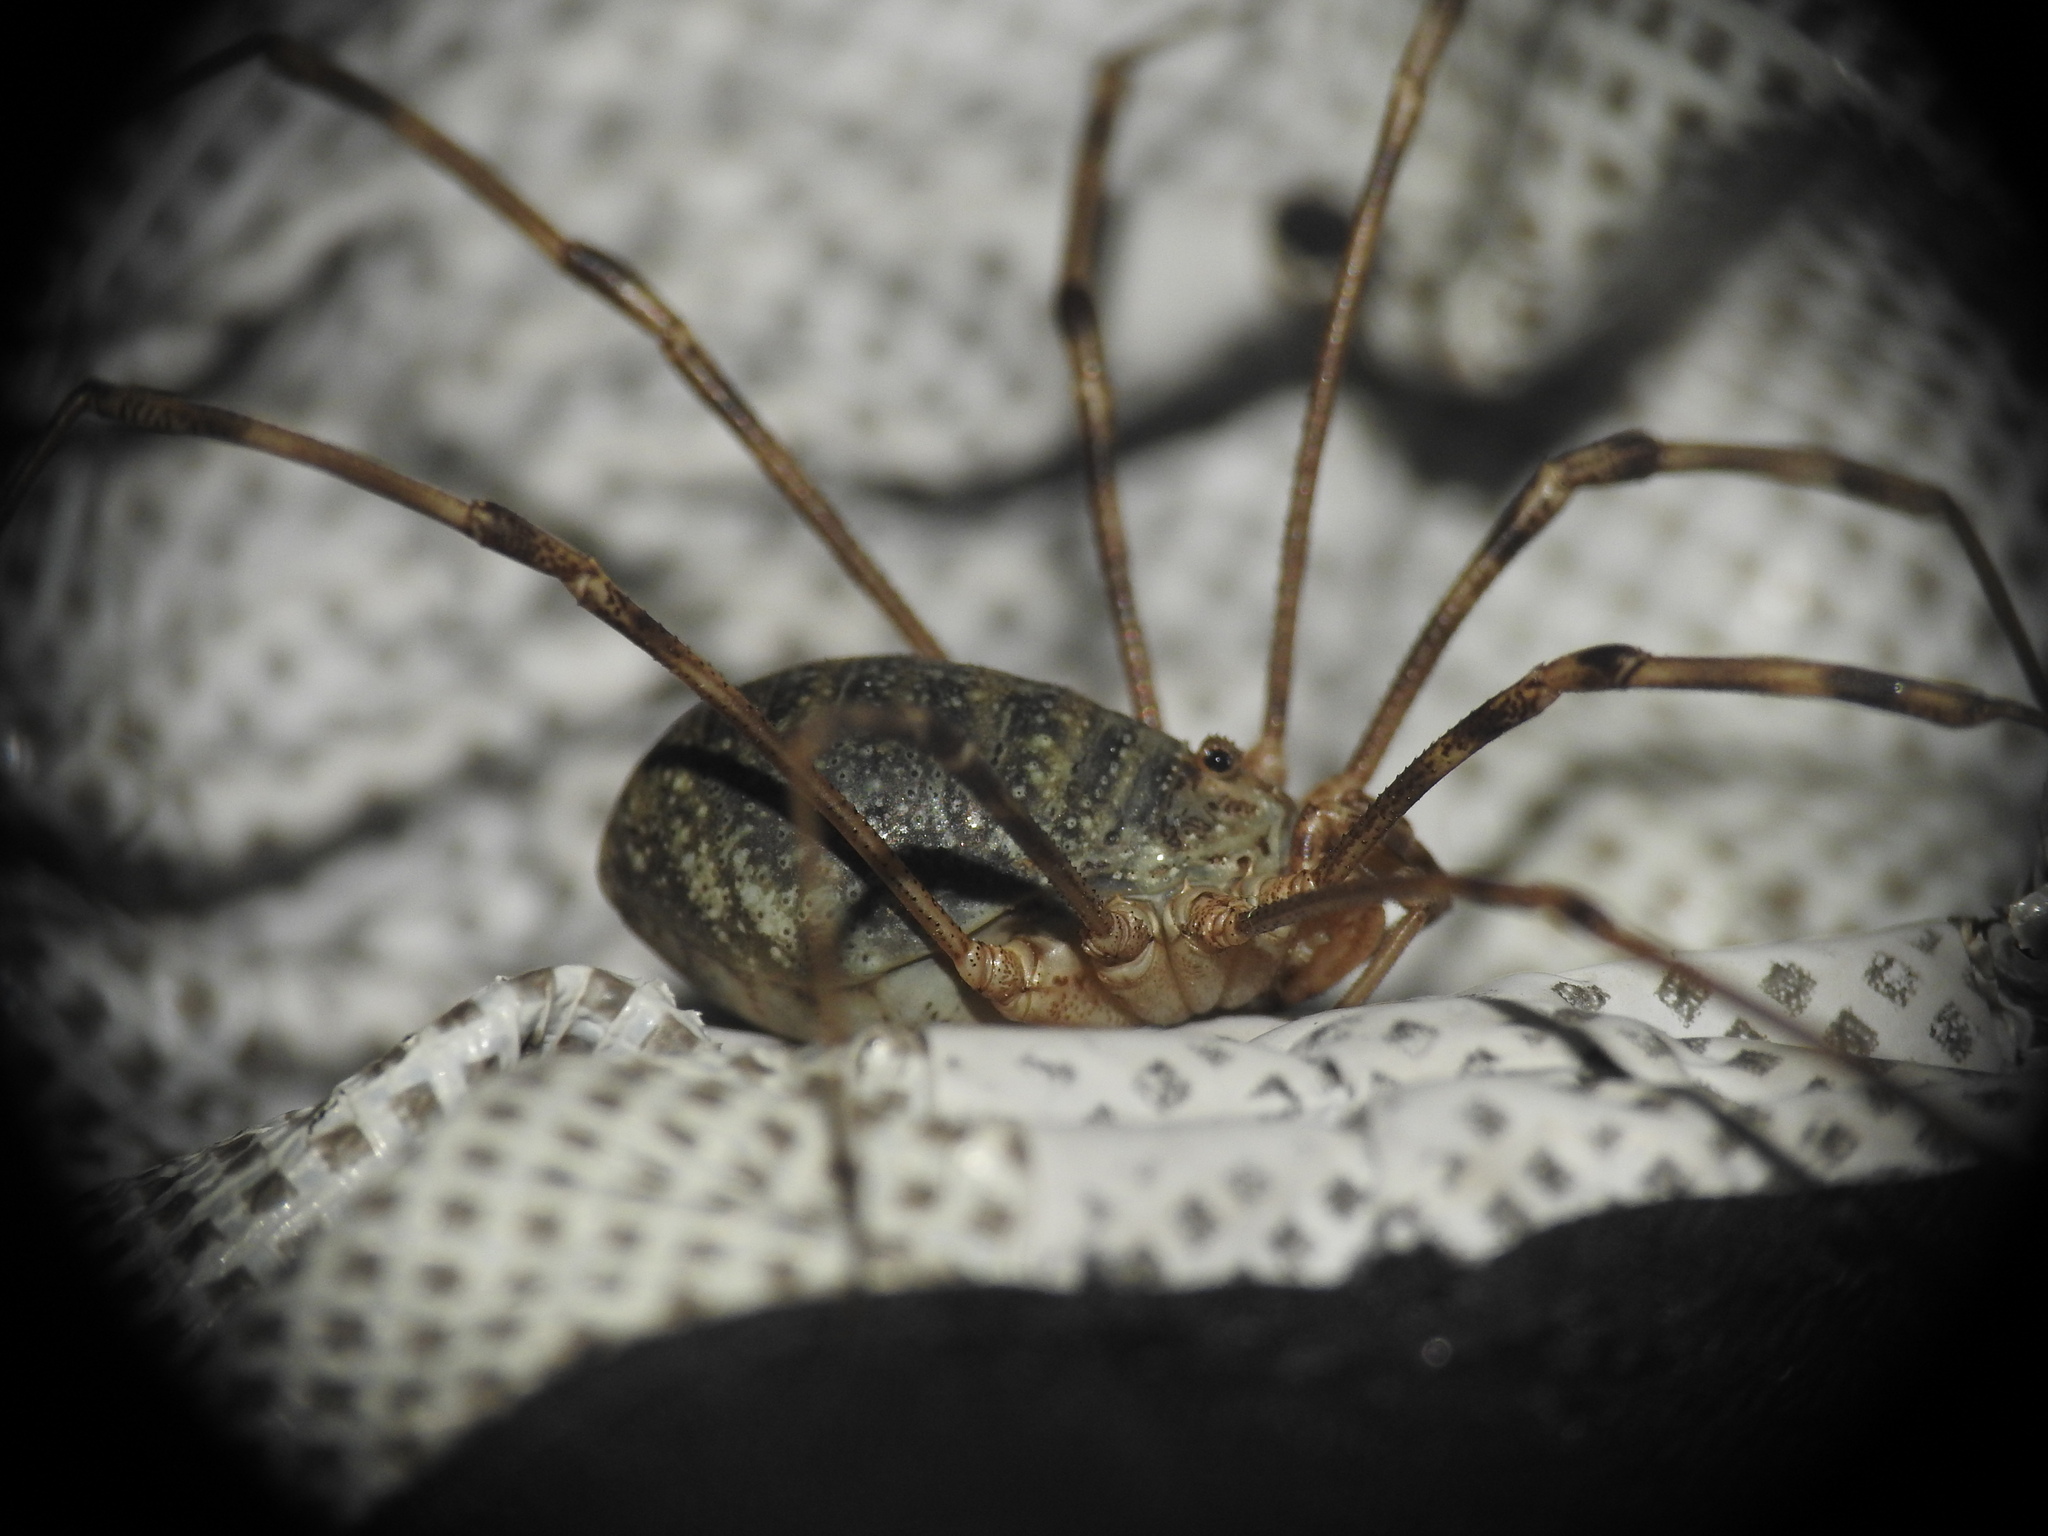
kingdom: Animalia
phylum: Arthropoda
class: Arachnida
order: Opiliones
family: Phalangiidae
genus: Mitopus
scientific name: Mitopus glacialis
